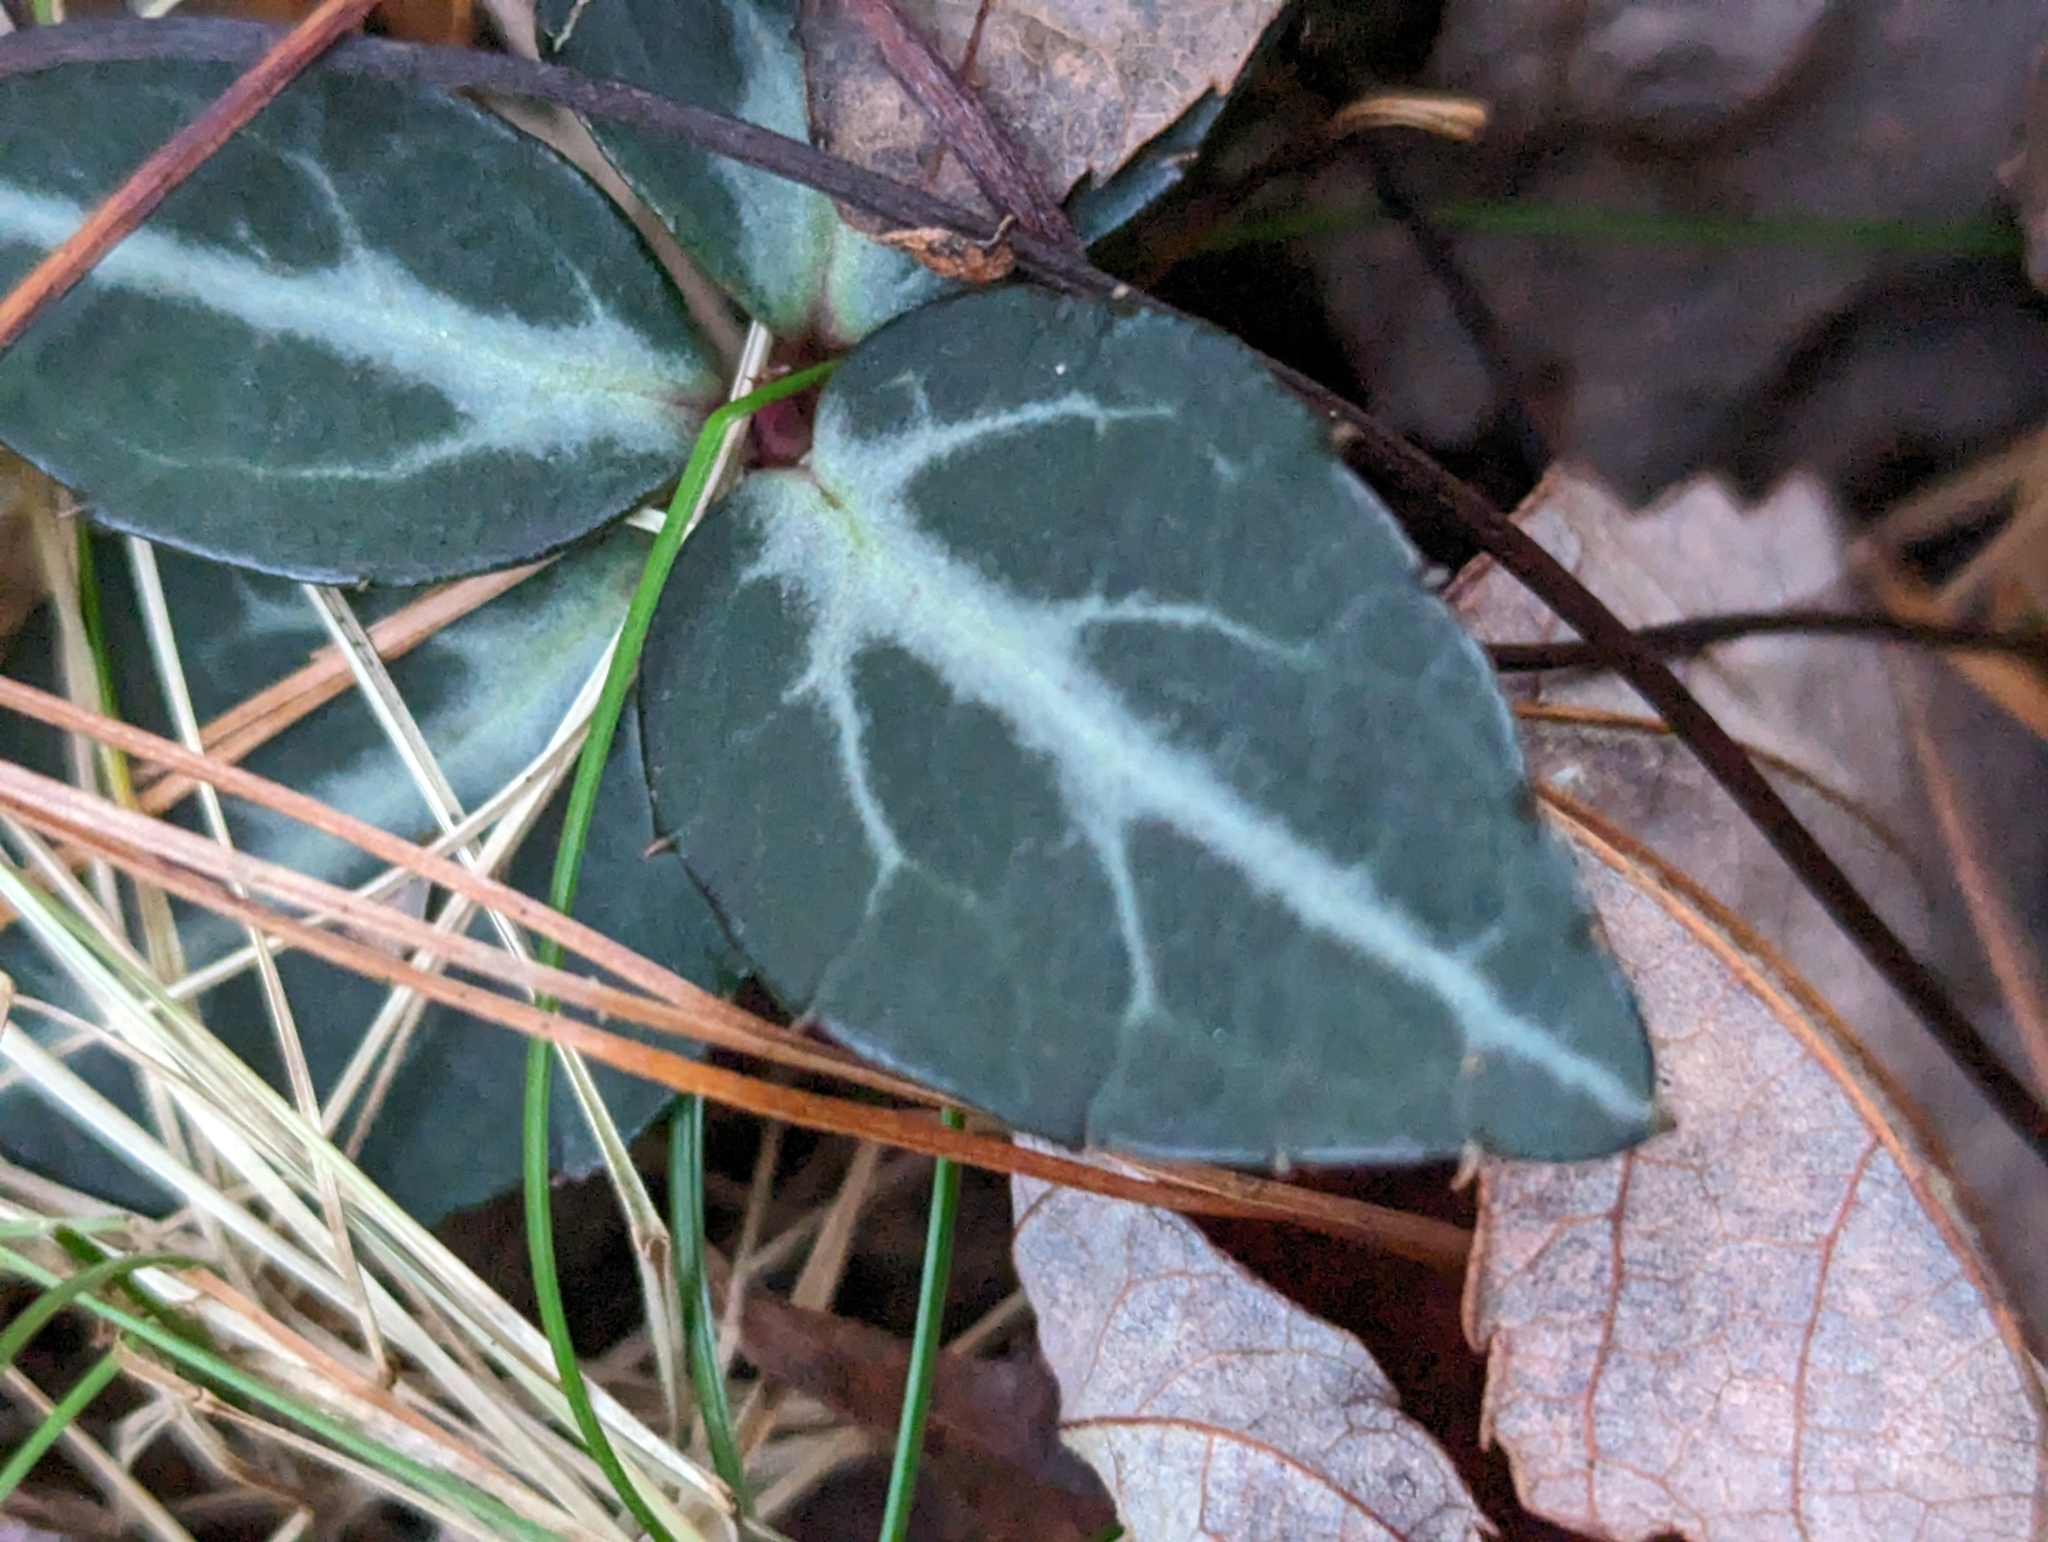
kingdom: Plantae
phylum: Tracheophyta
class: Magnoliopsida
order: Ericales
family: Ericaceae
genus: Chimaphila
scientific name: Chimaphila maculata
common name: Spotted pipsissewa
